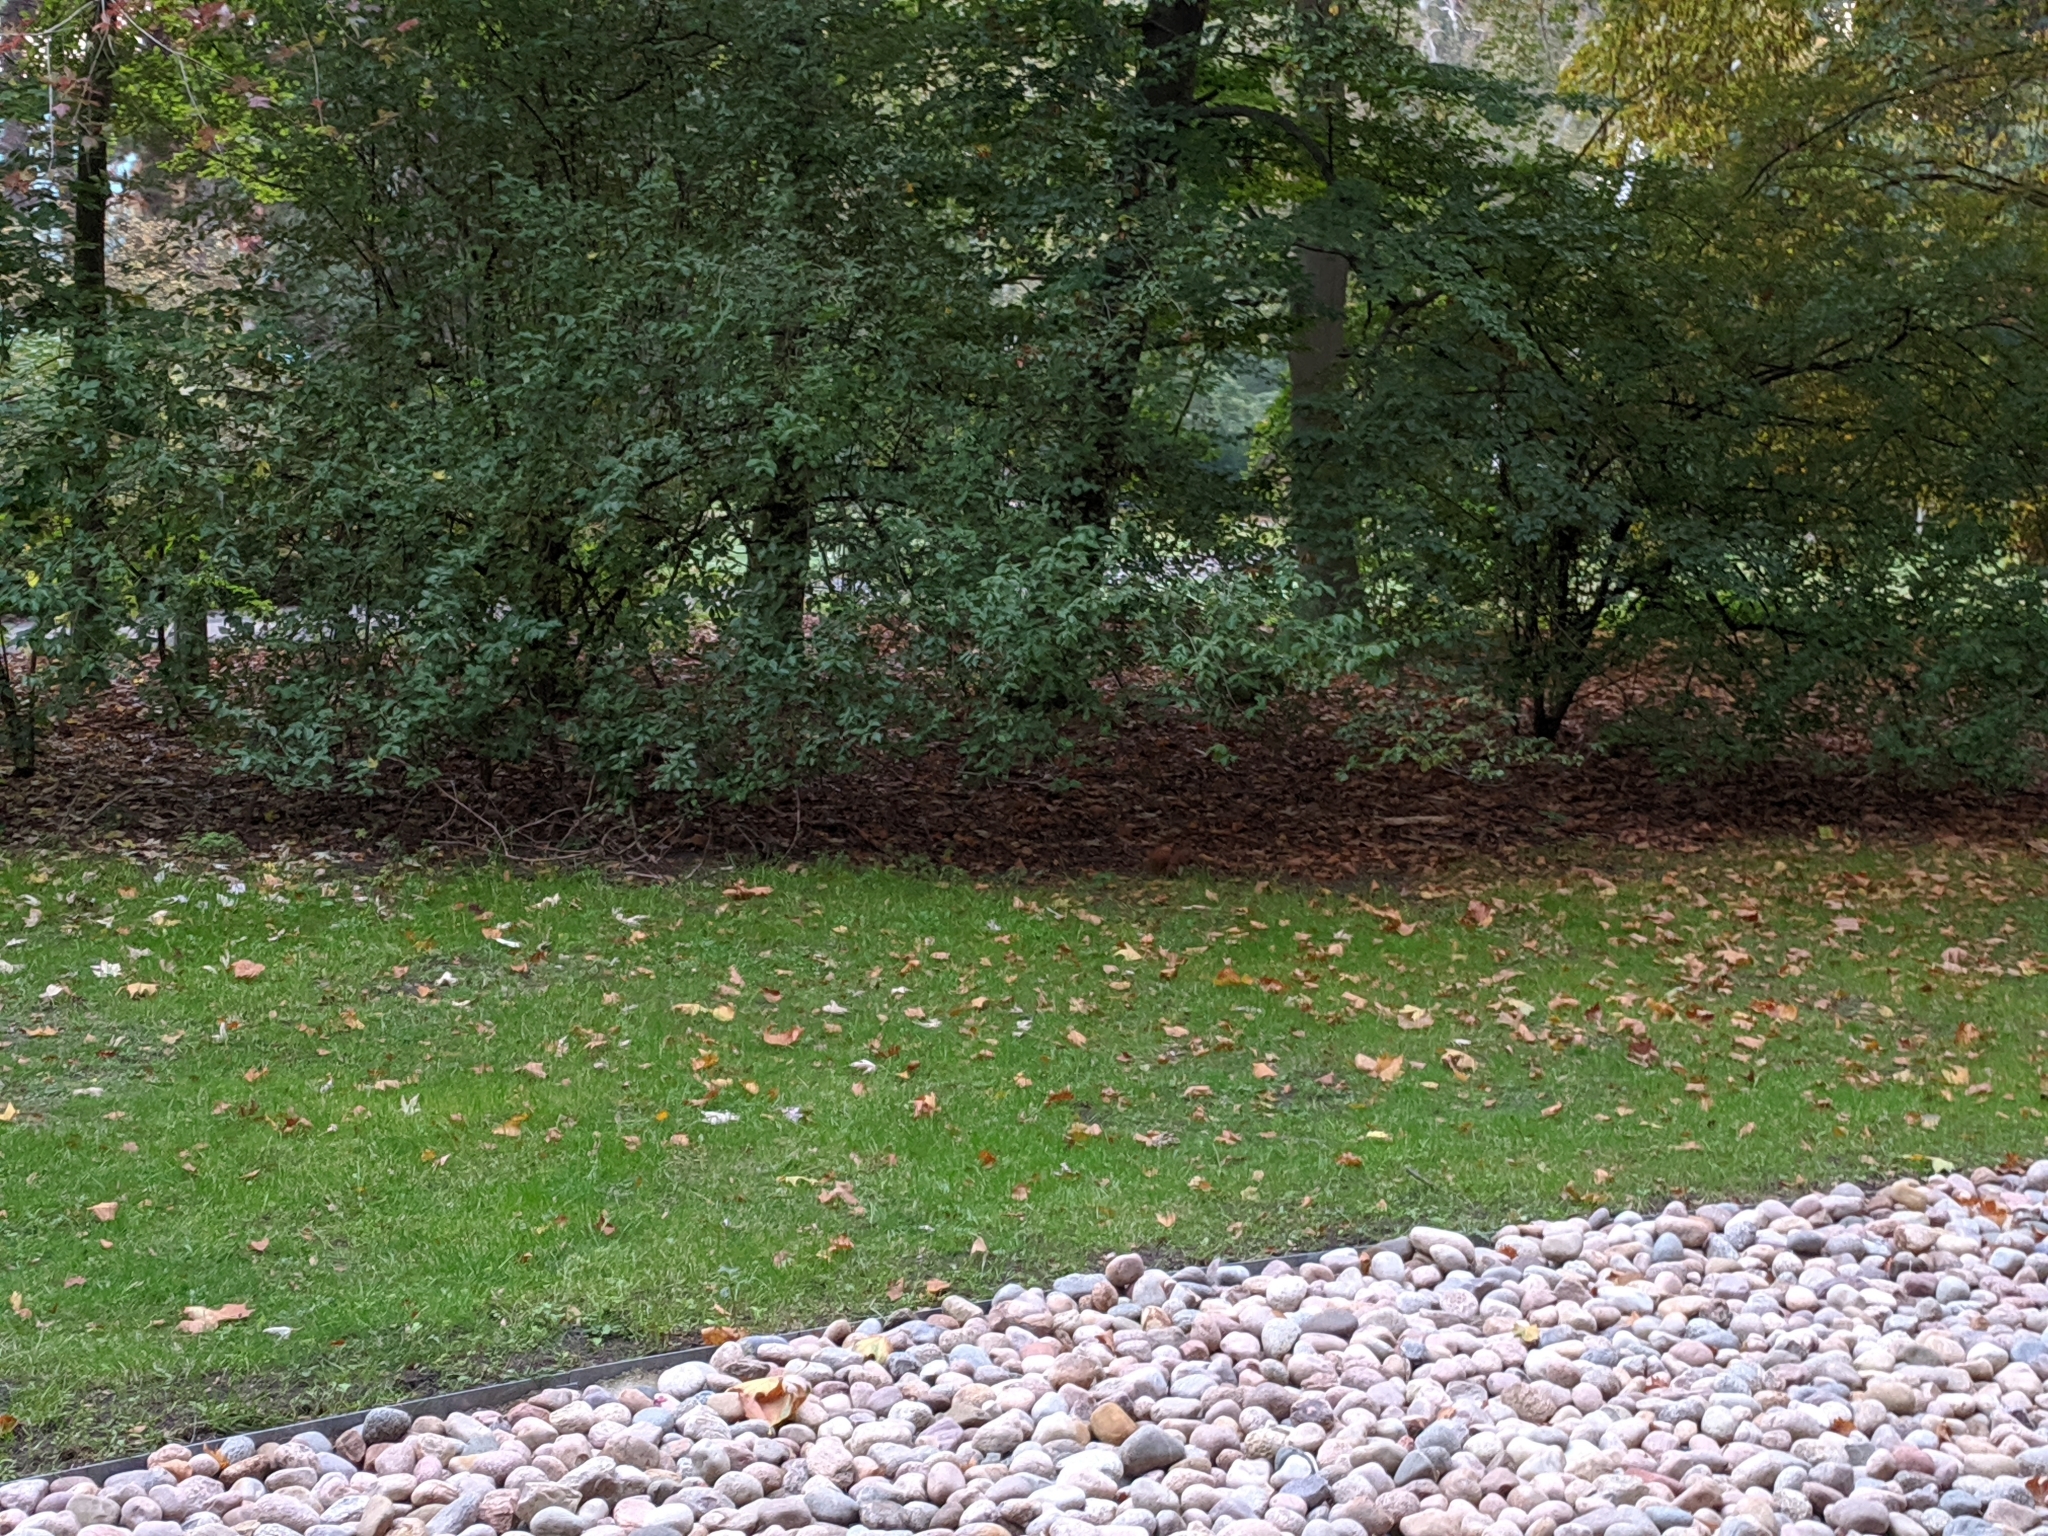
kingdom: Animalia
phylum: Chordata
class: Mammalia
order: Rodentia
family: Sciuridae
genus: Sciurus
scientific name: Sciurus vulgaris
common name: Eurasian red squirrel
